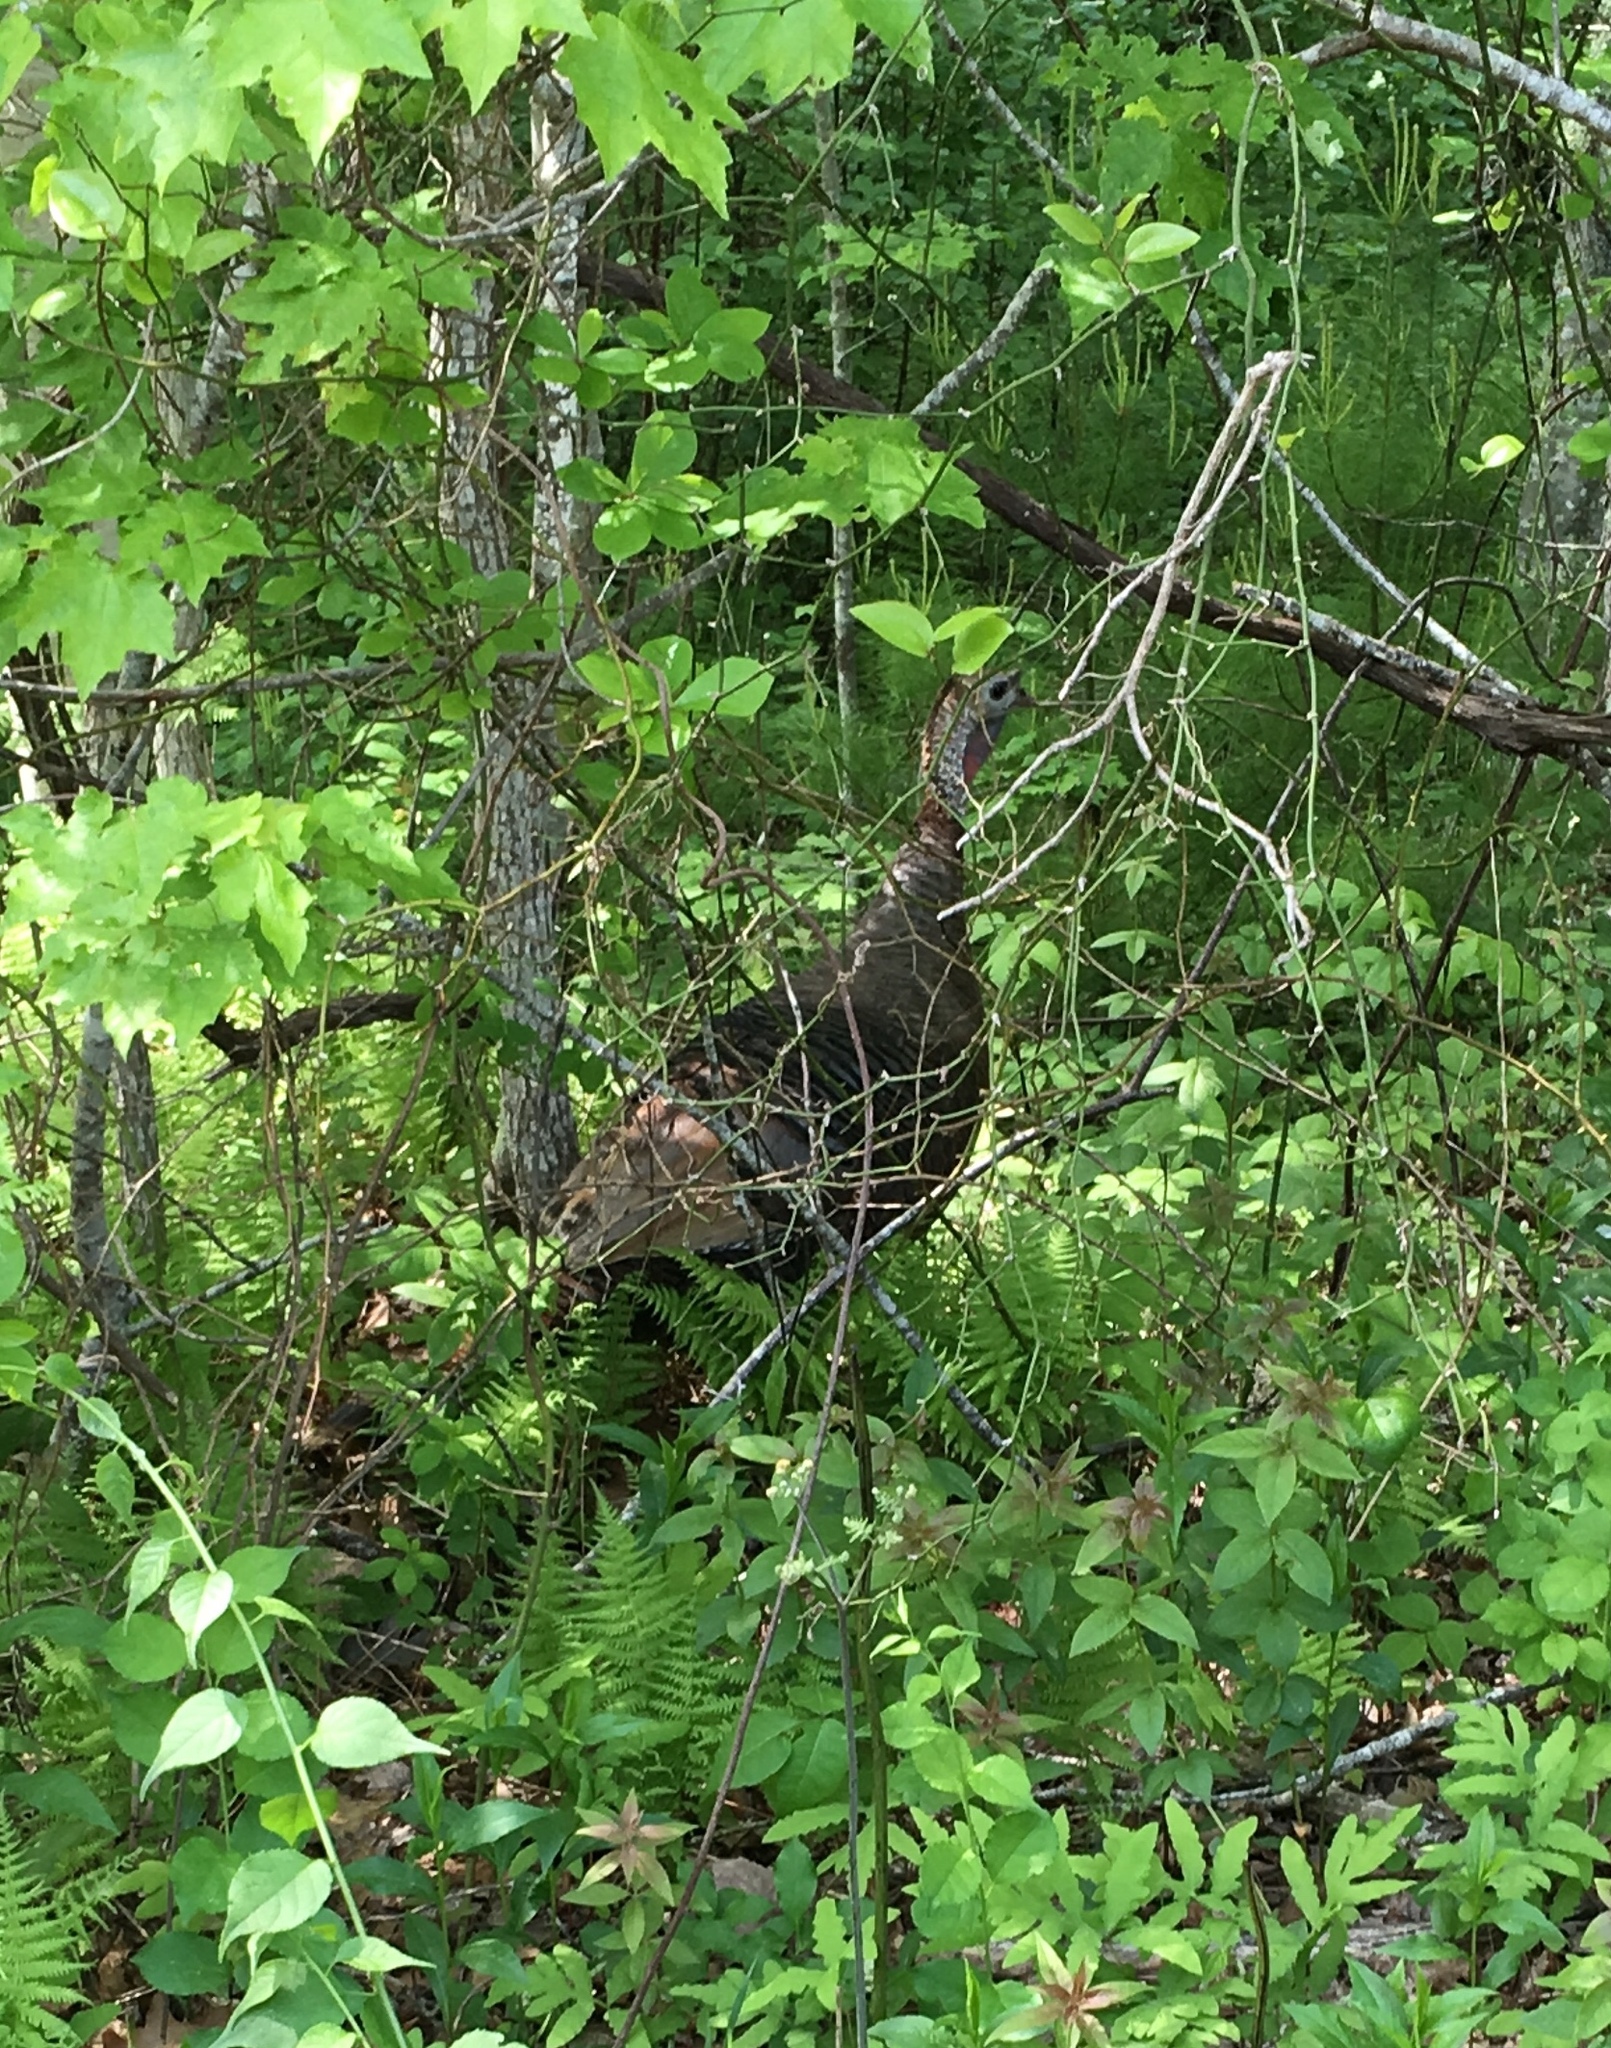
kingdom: Animalia
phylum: Chordata
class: Aves
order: Galliformes
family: Phasianidae
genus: Meleagris
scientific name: Meleagris gallopavo
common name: Wild turkey
